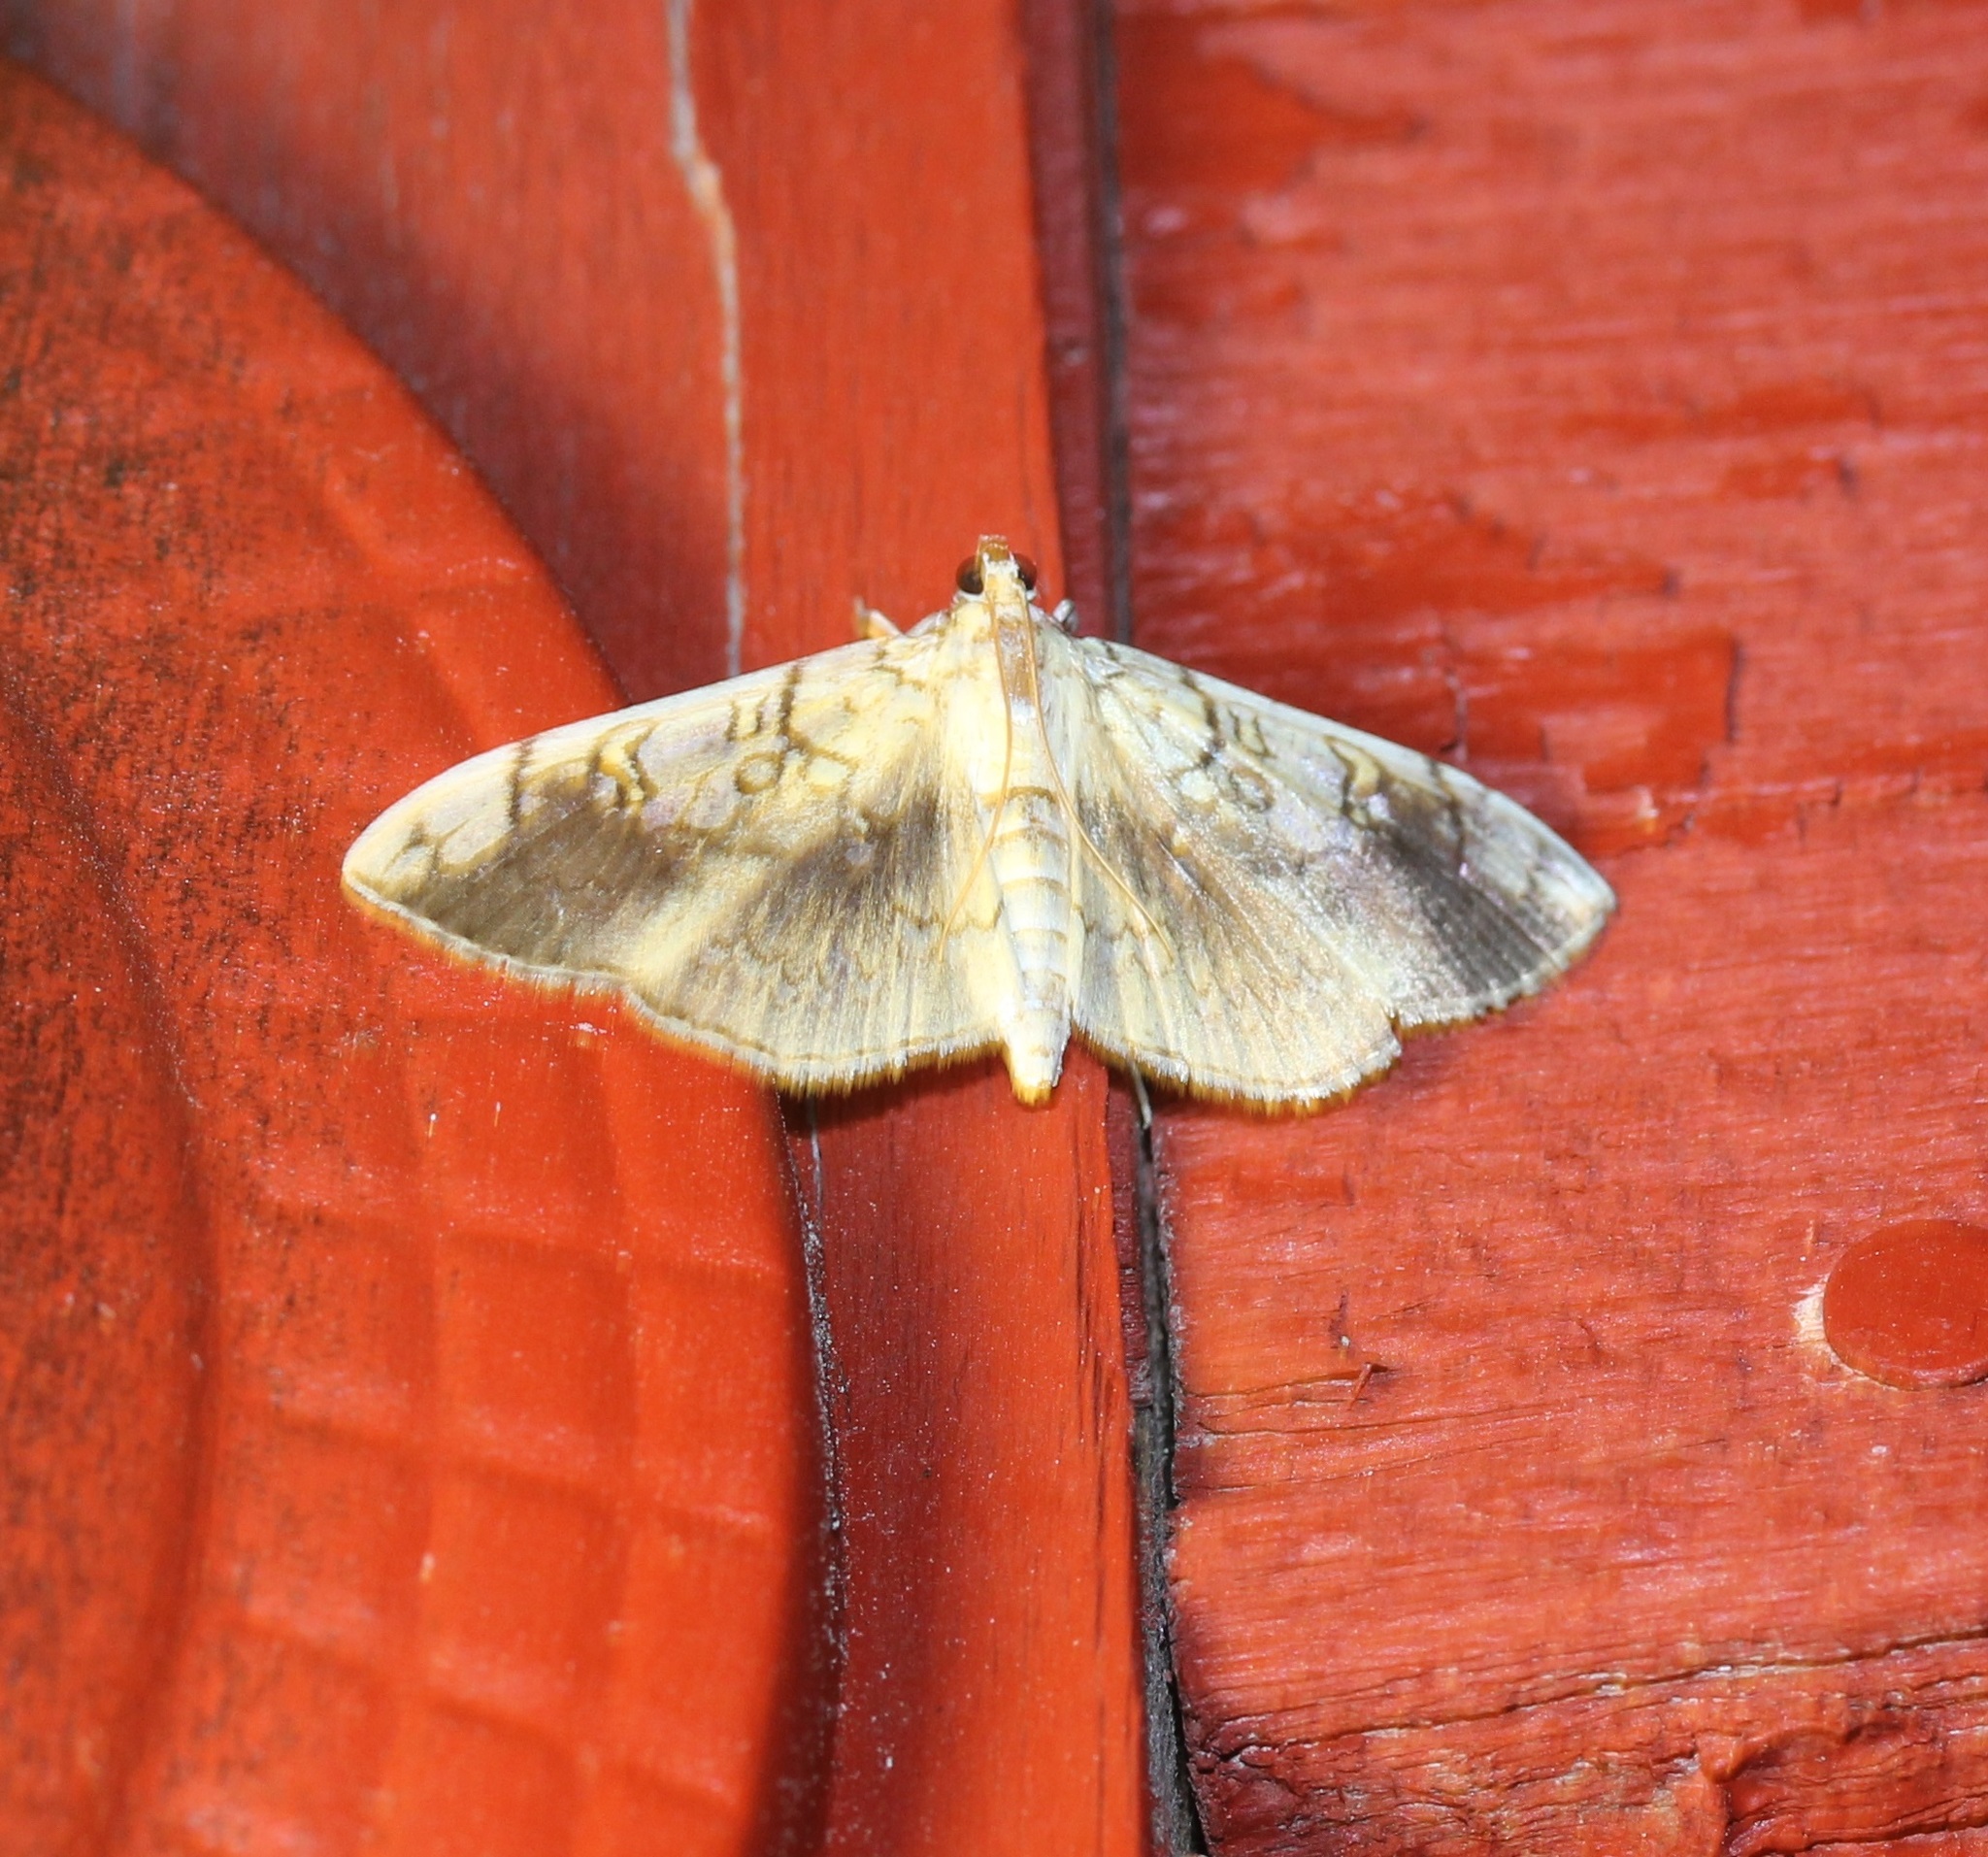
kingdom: Animalia
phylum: Arthropoda
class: Insecta
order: Lepidoptera
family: Crambidae
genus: Pantographa
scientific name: Pantographa limata
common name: Basswood leafroller moth
